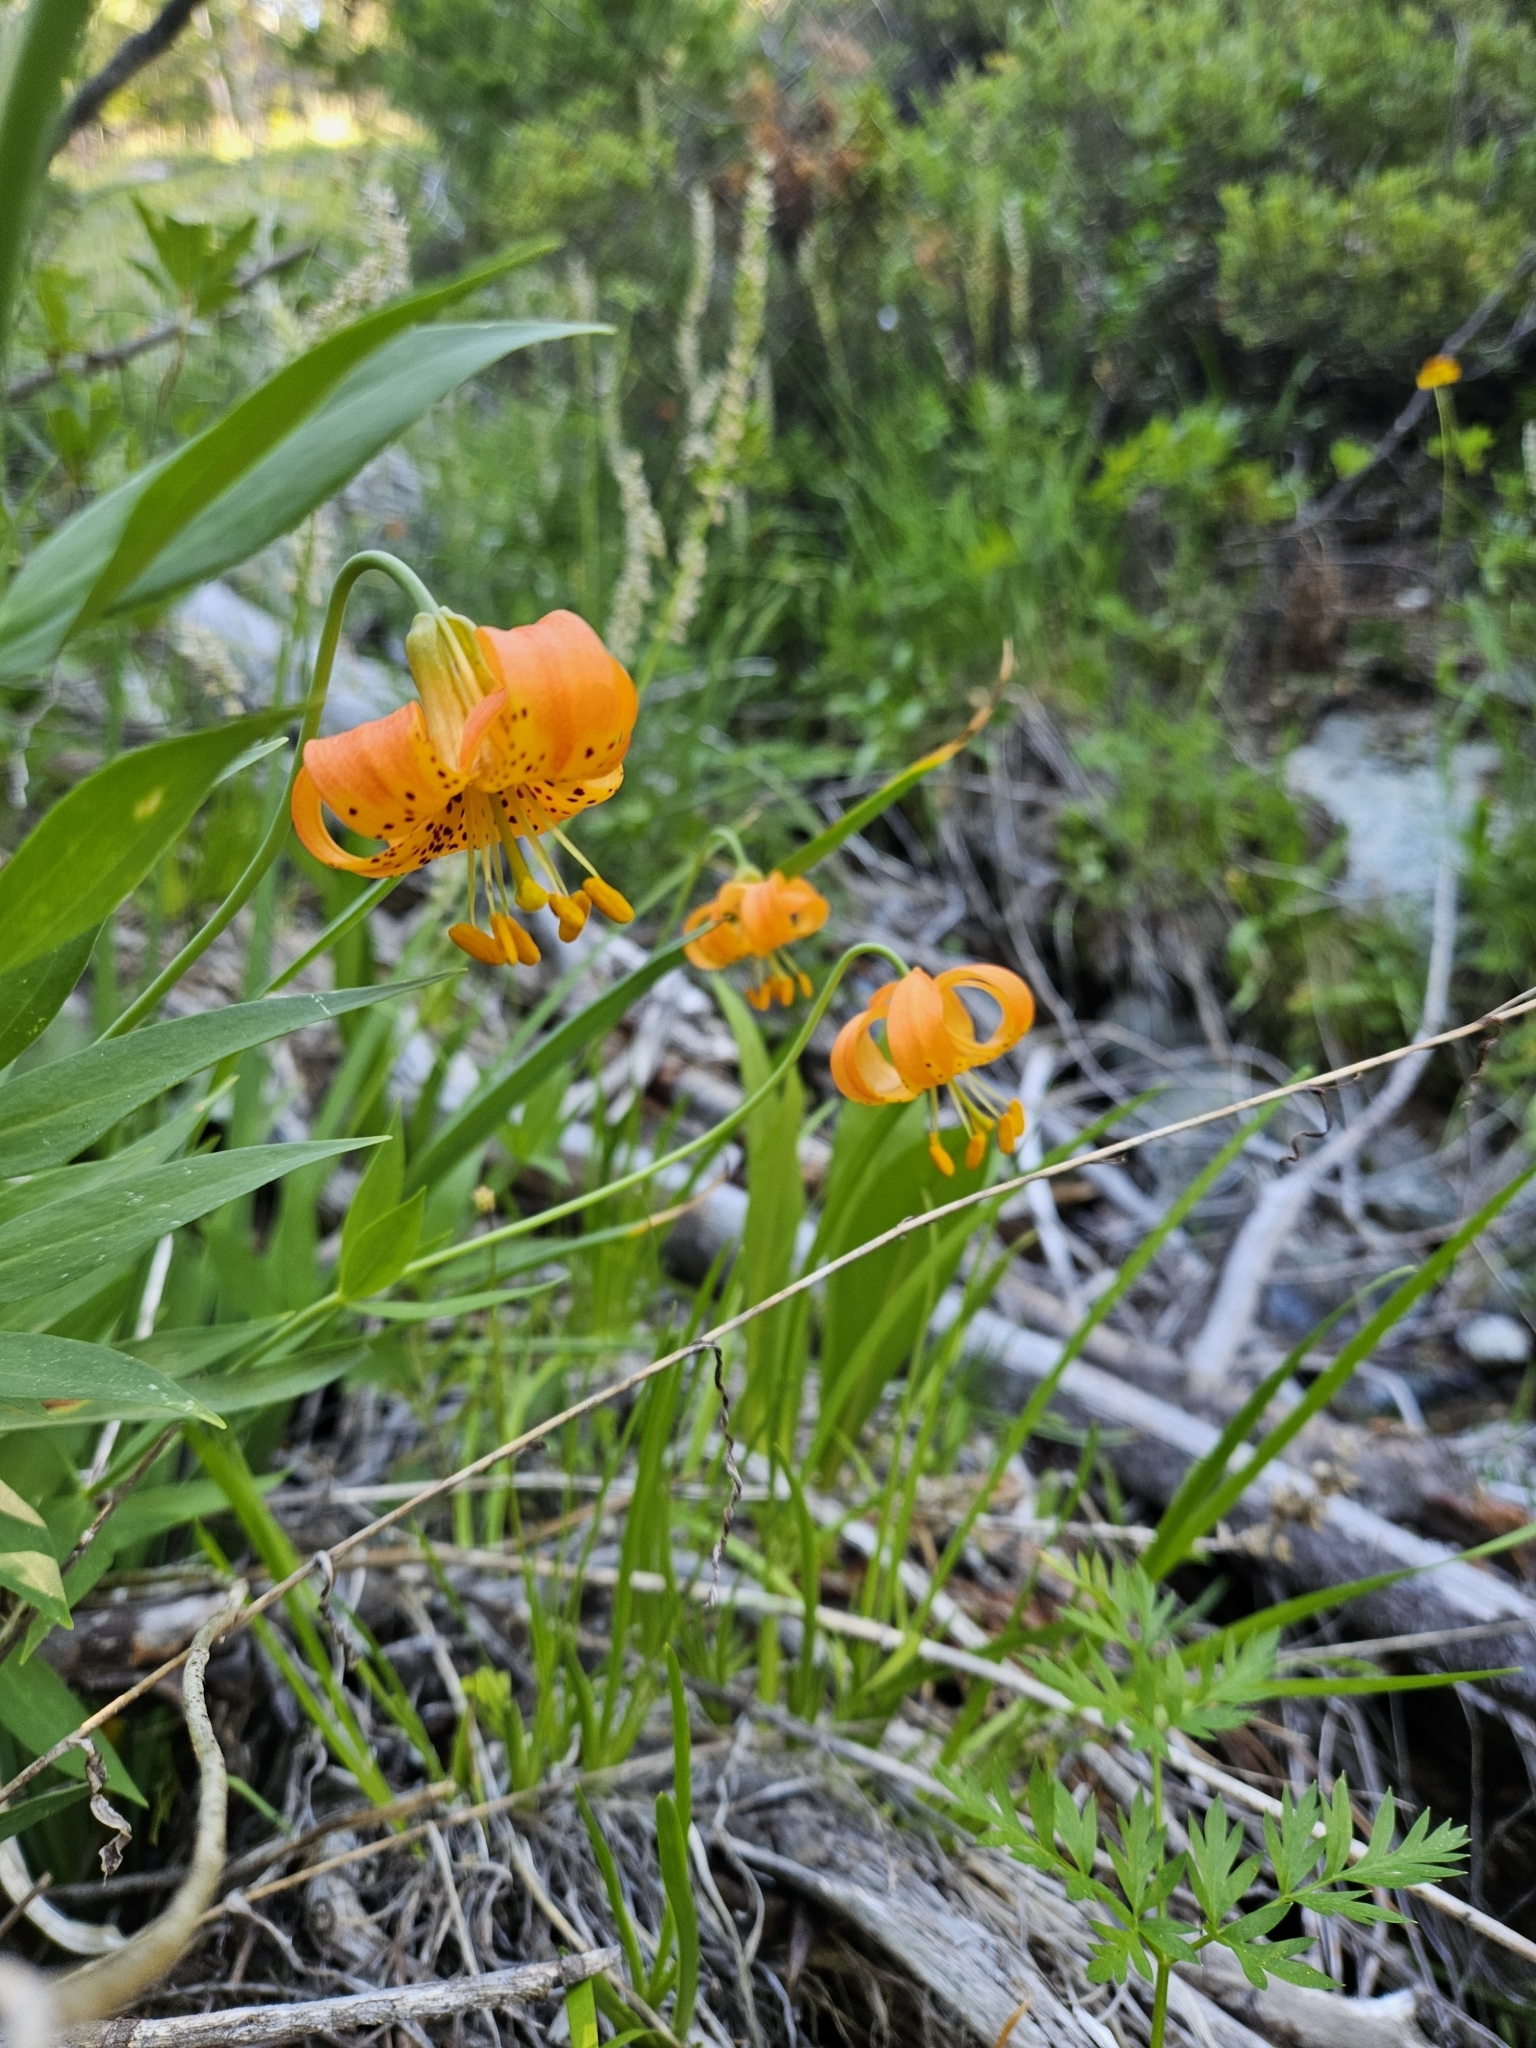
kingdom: Plantae
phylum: Tracheophyta
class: Liliopsida
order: Liliales
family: Liliaceae
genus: Lilium
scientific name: Lilium pardalinum
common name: Panther lily
